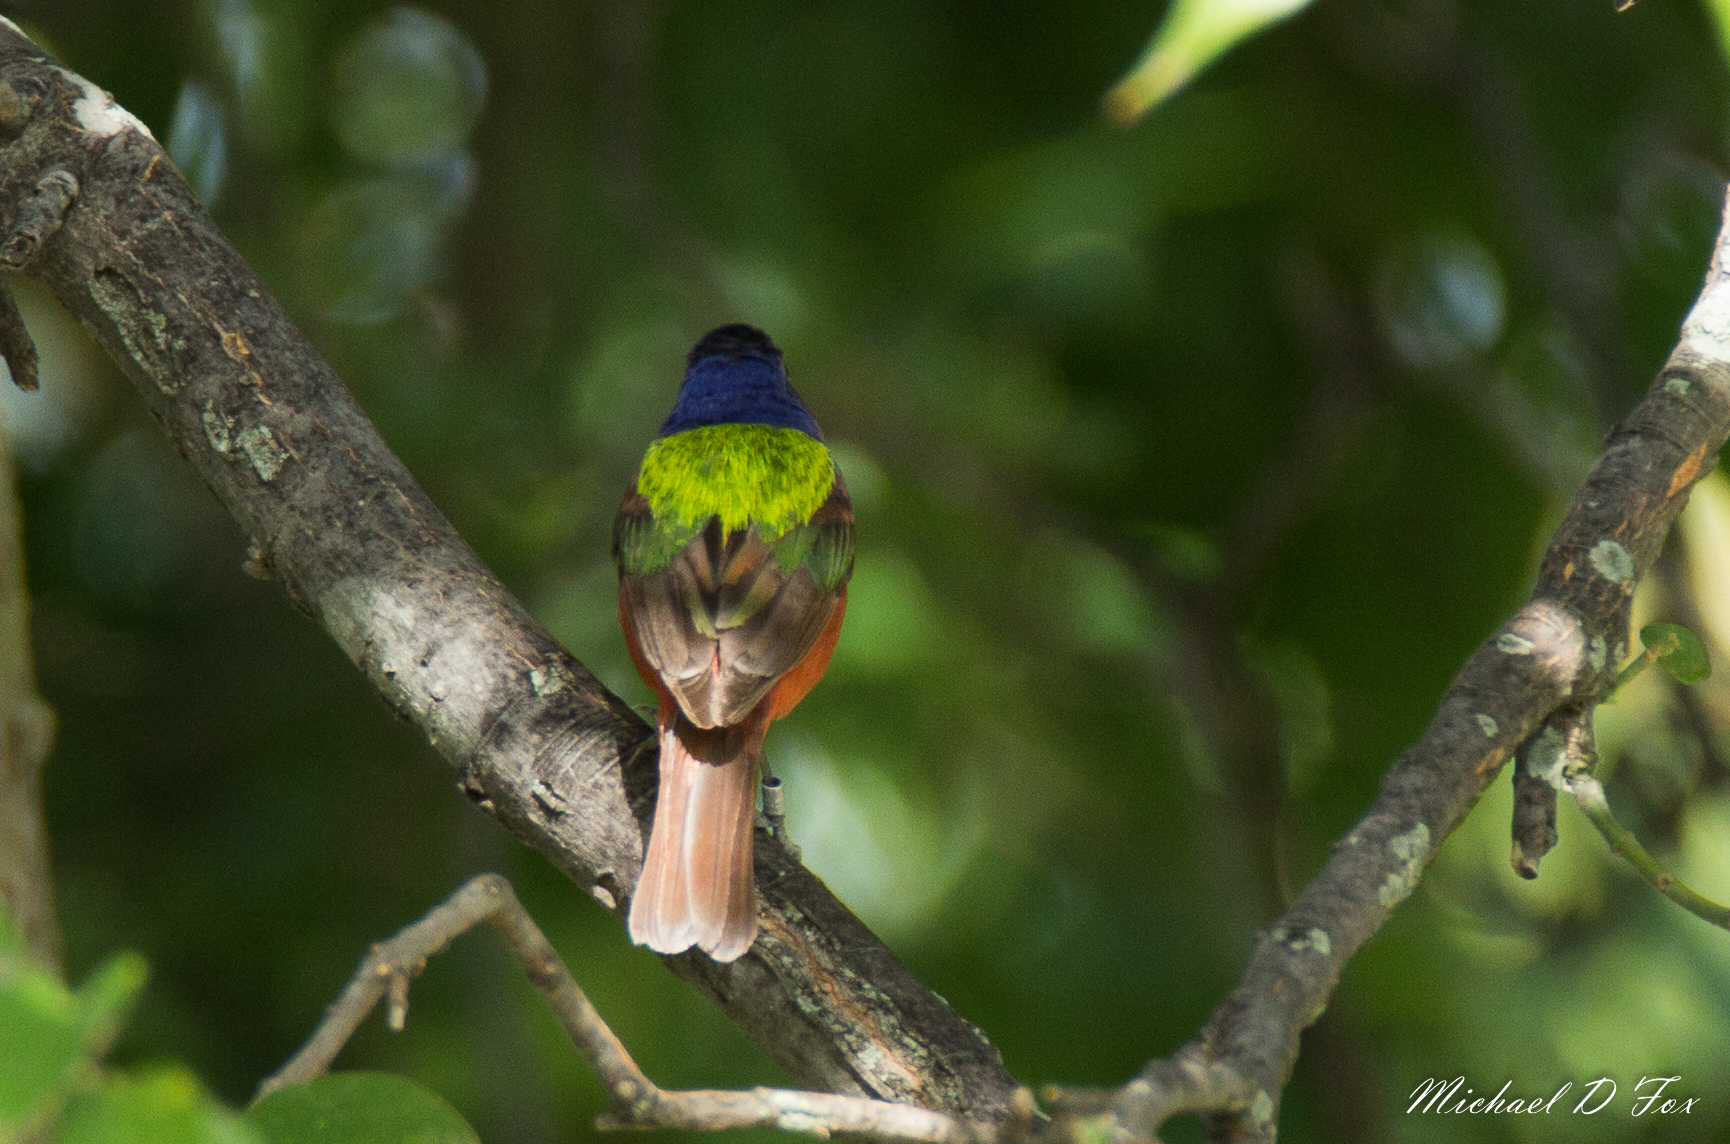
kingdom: Animalia
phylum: Chordata
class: Aves
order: Passeriformes
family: Cardinalidae
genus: Passerina
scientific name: Passerina ciris
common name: Painted bunting
